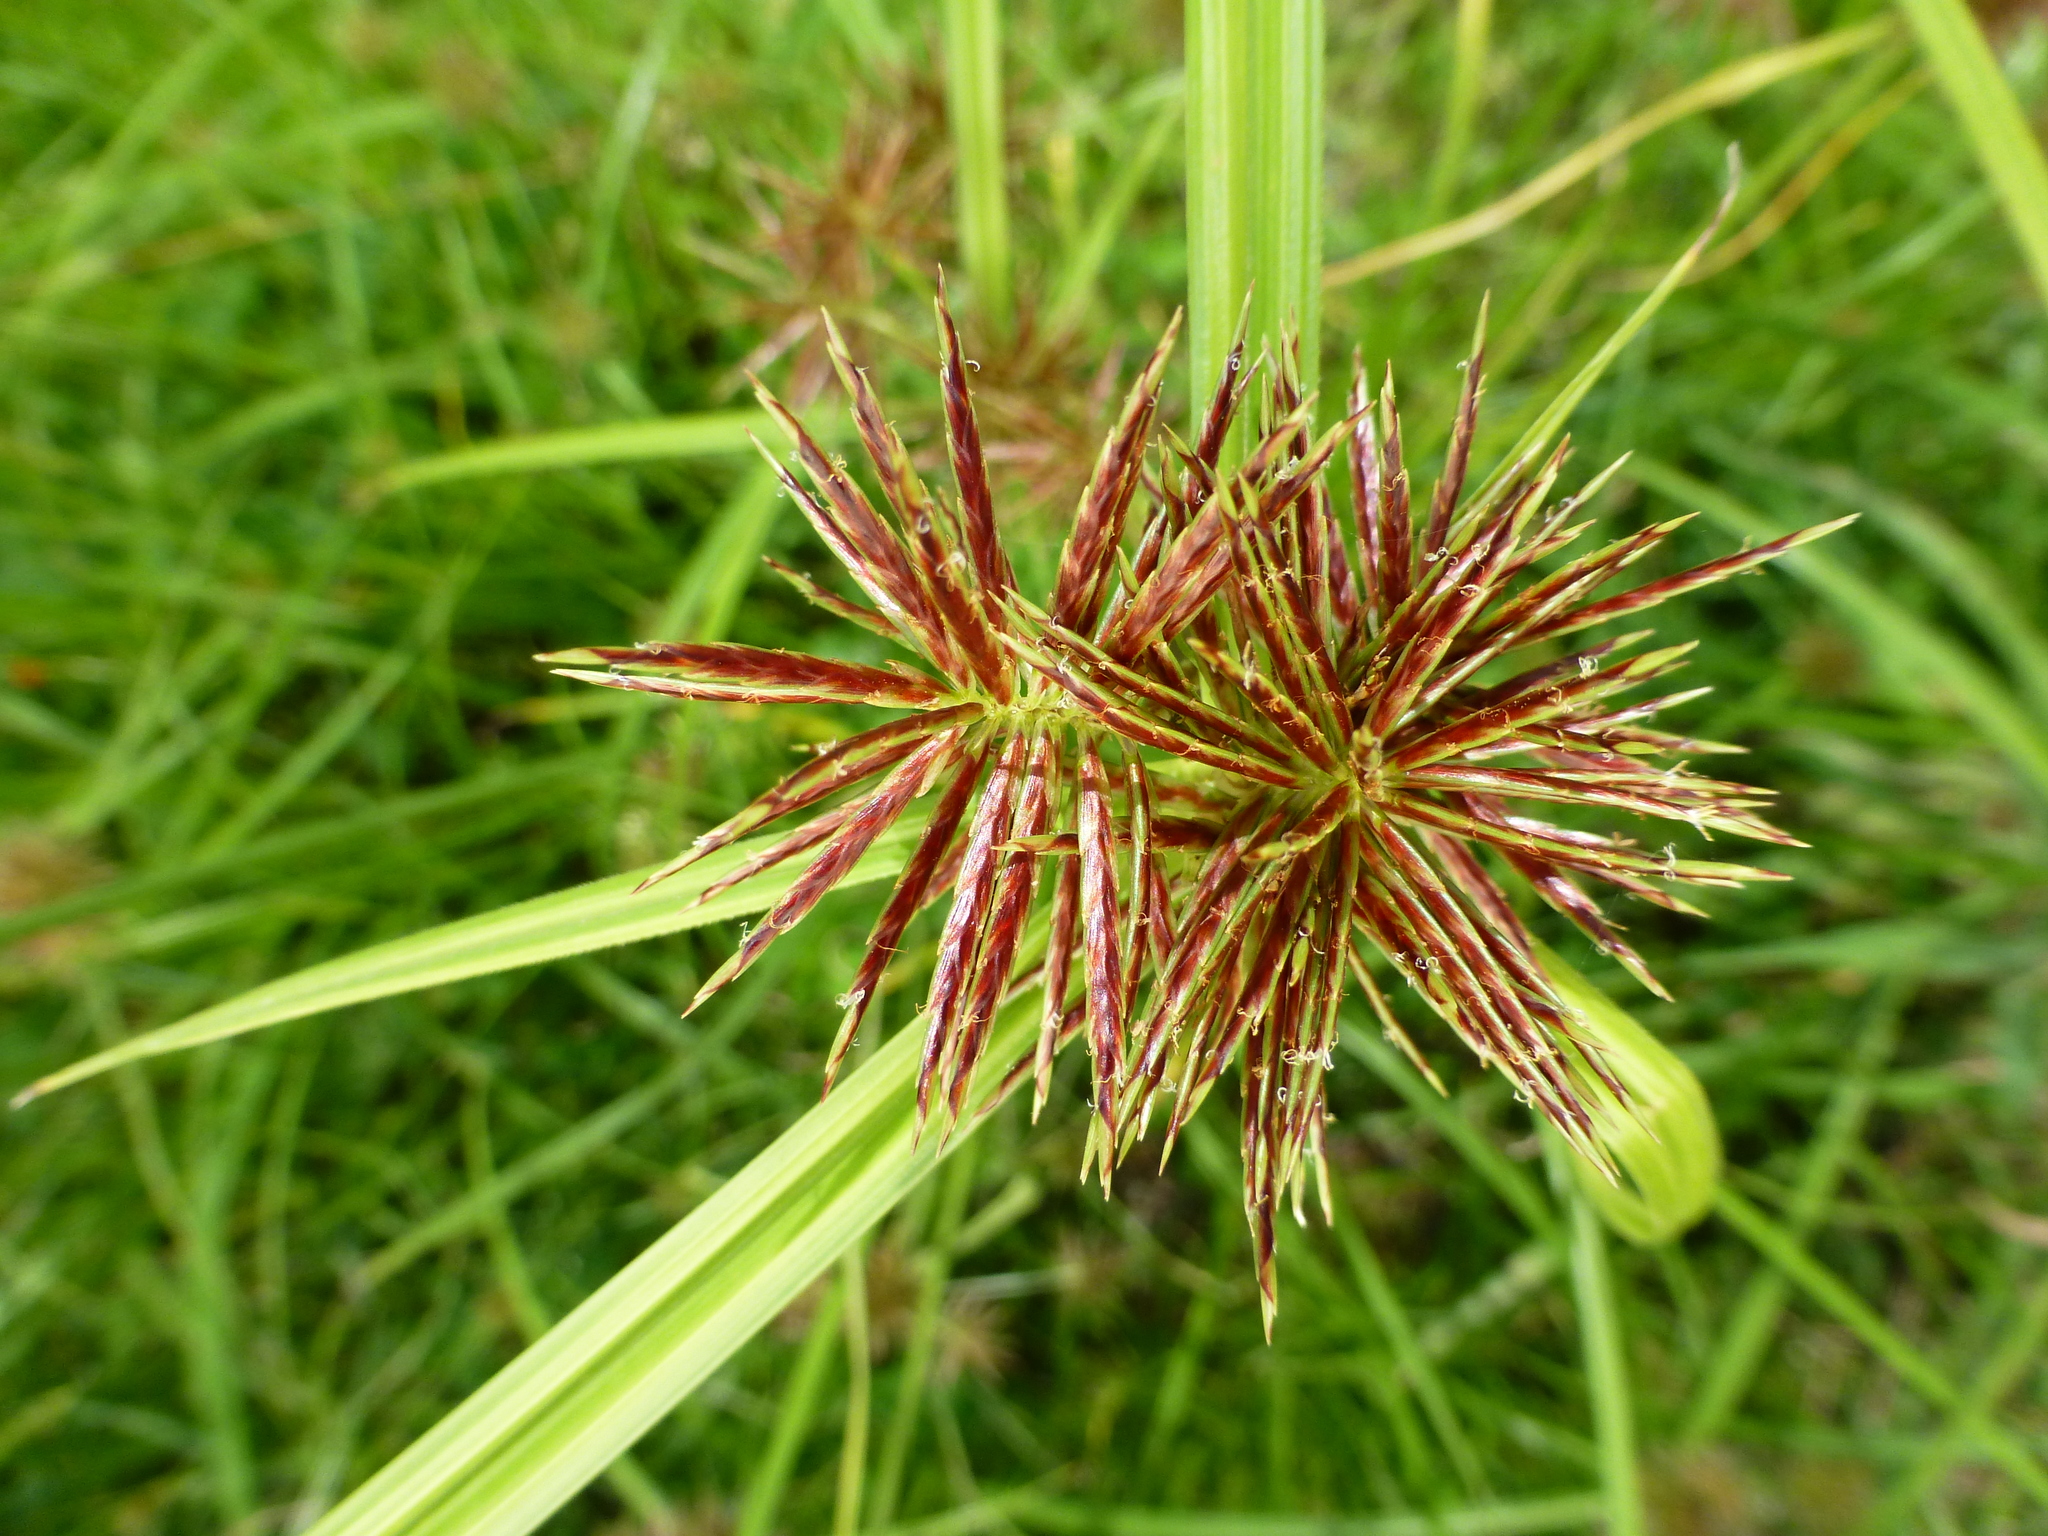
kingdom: Plantae
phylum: Tracheophyta
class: Liliopsida
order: Poales
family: Cyperaceae
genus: Cyperus
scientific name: Cyperus congestus
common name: Dense flat sedge
